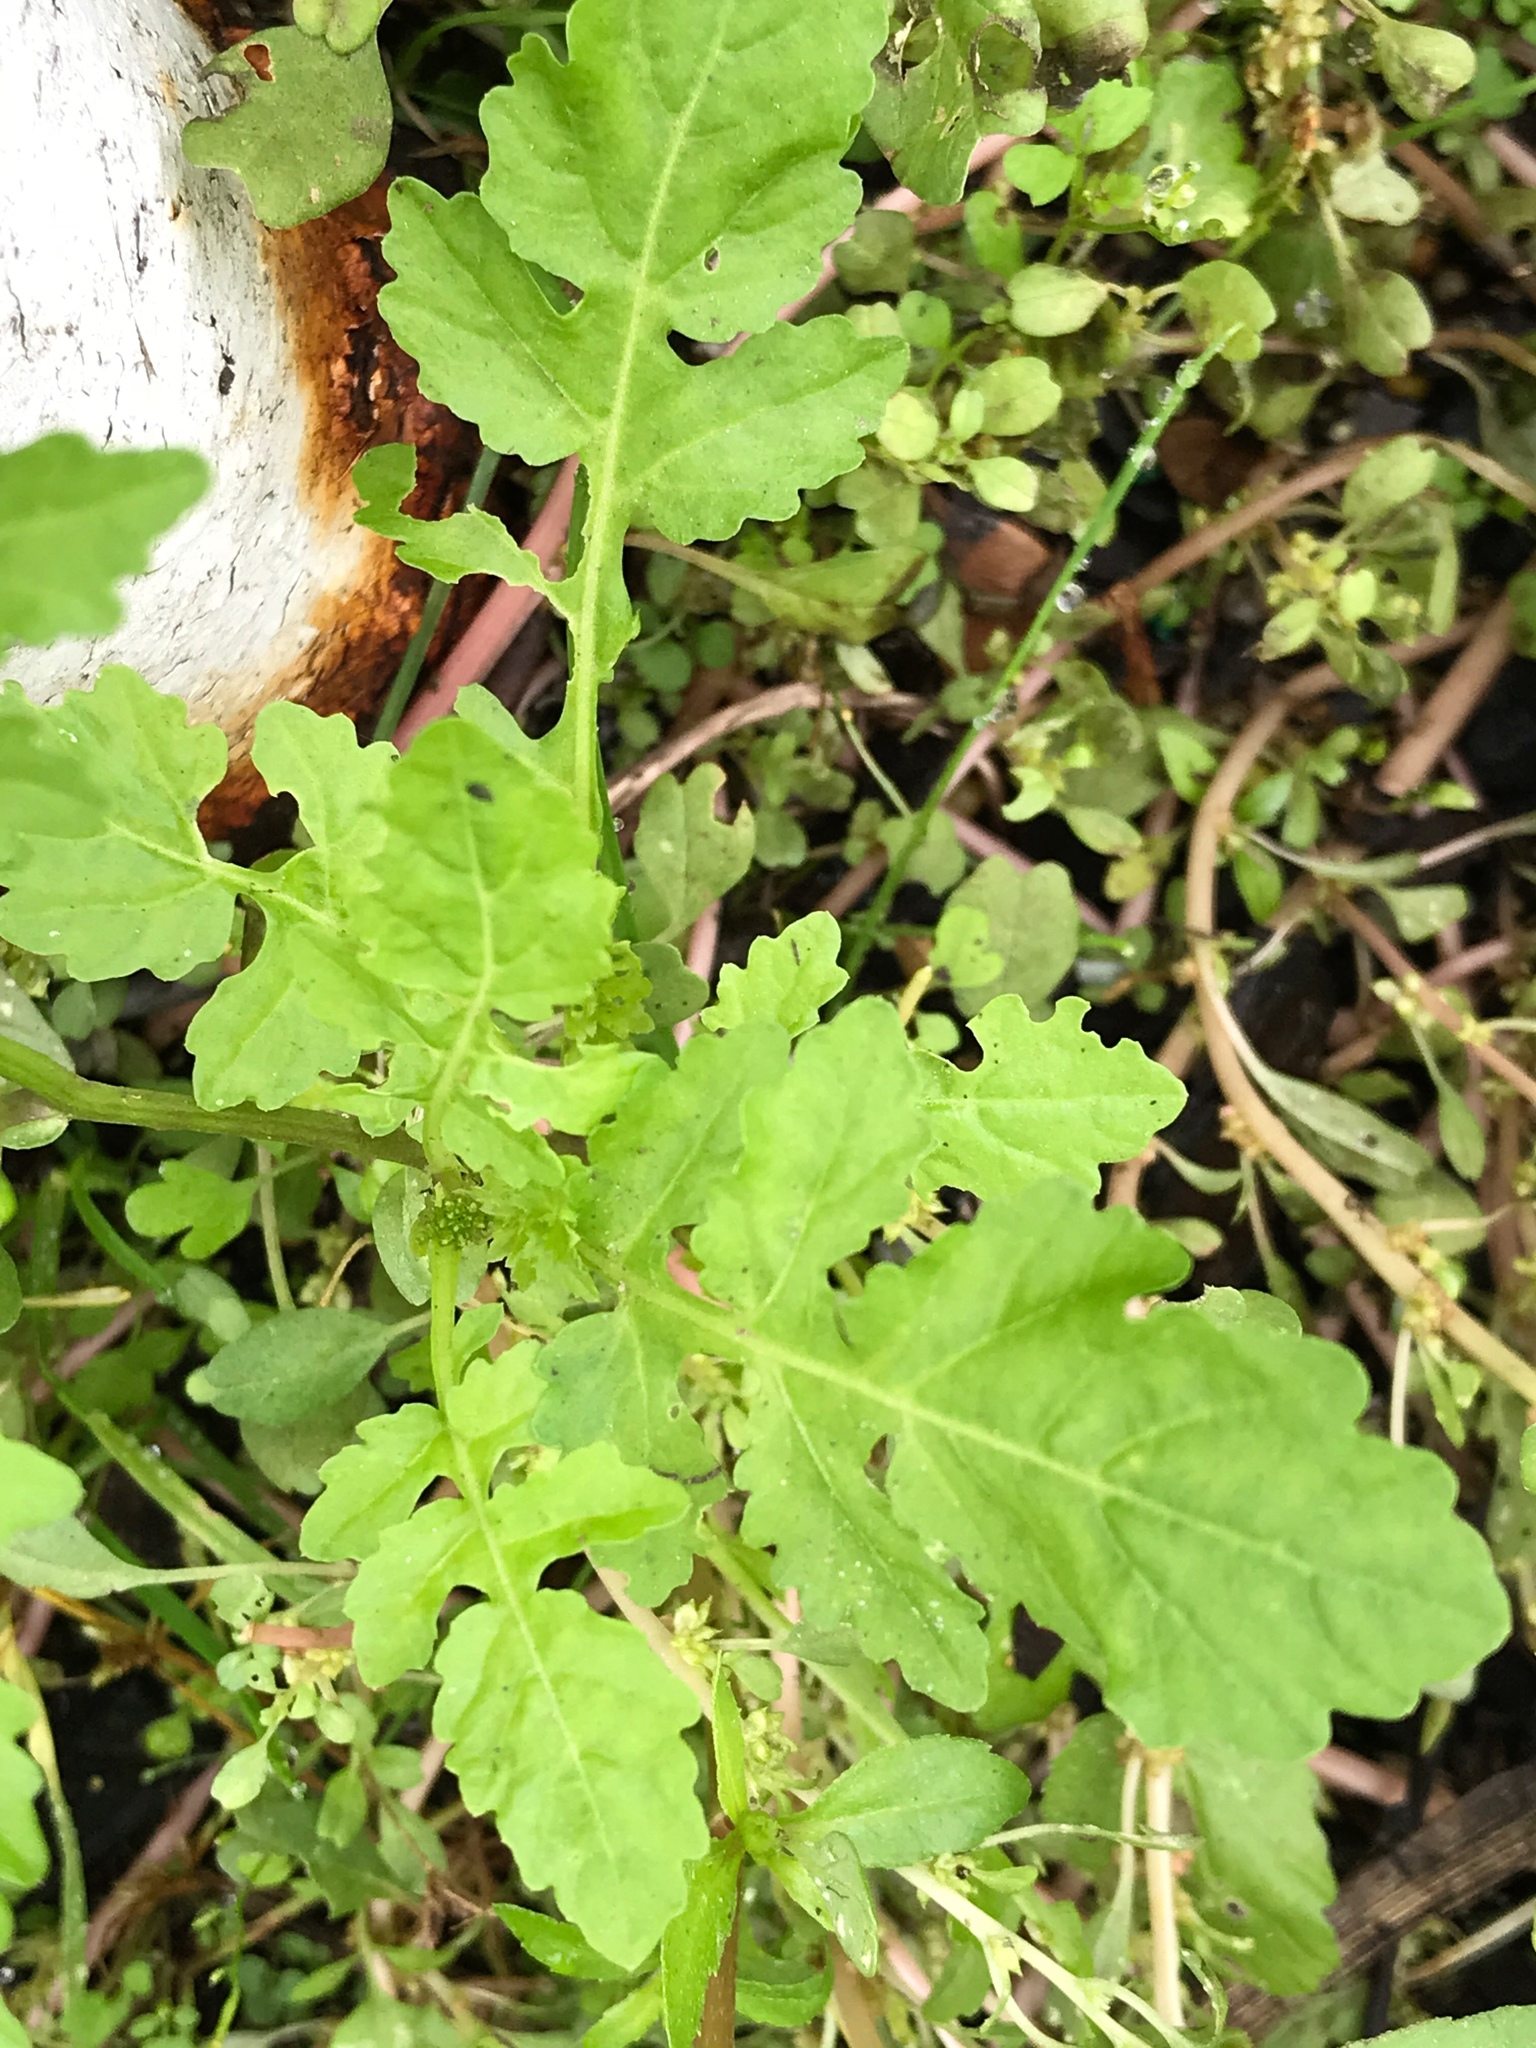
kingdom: Plantae
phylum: Tracheophyta
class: Magnoliopsida
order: Brassicales
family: Brassicaceae
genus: Rorippa
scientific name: Rorippa palustris
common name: Marsh yellow-cress
